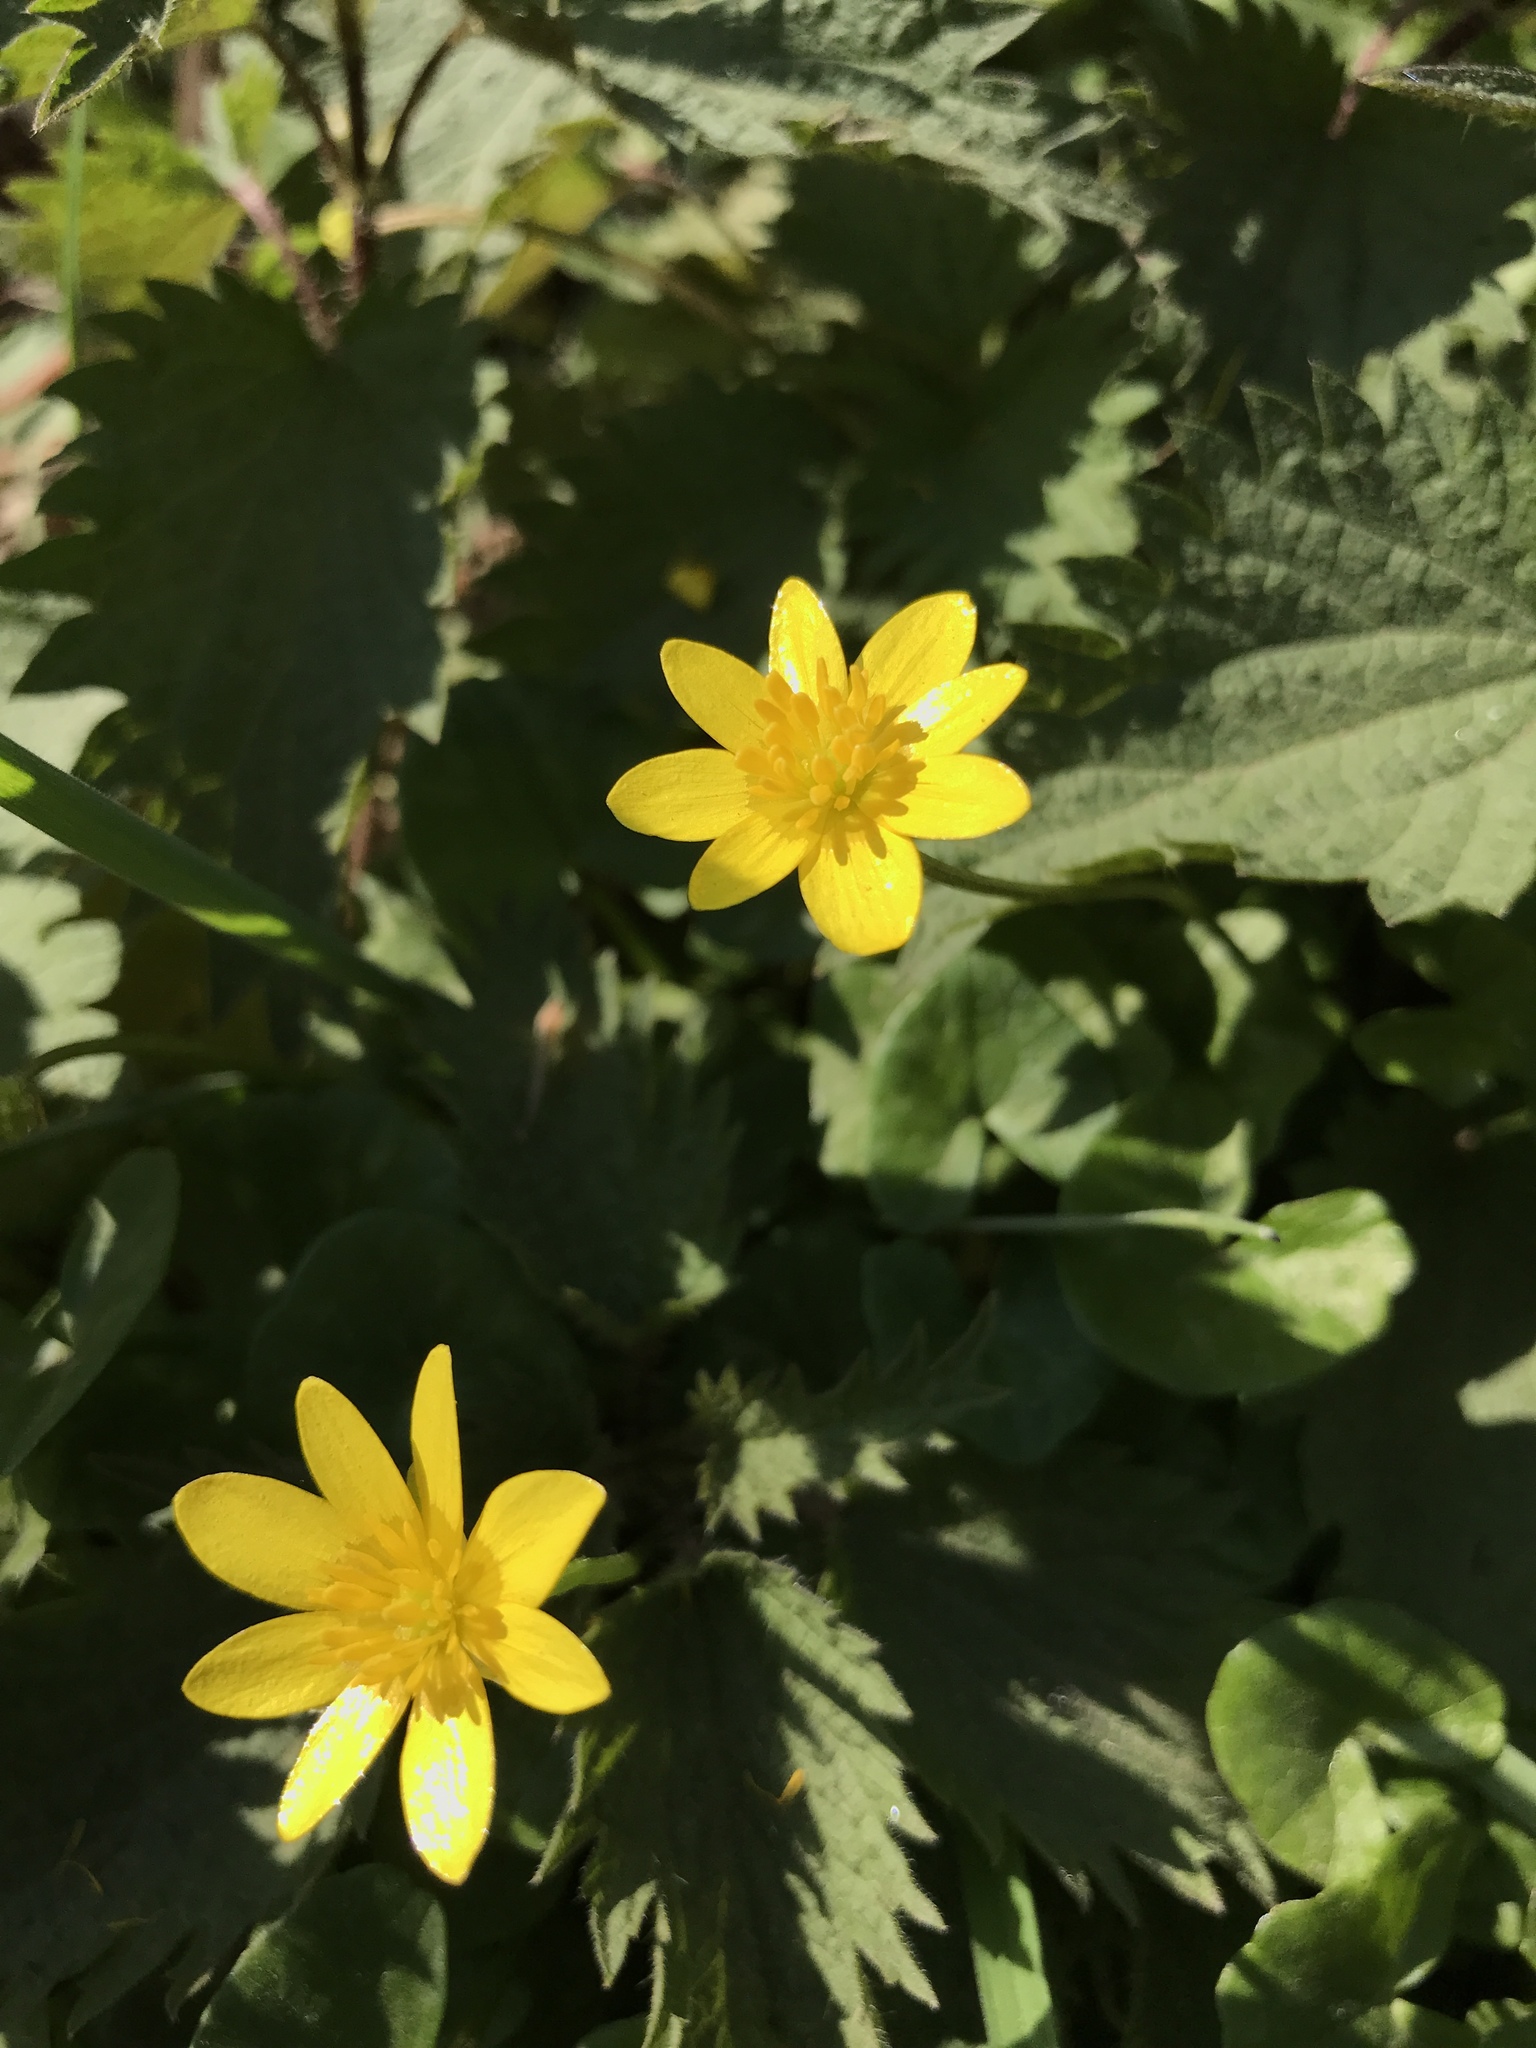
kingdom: Plantae
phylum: Tracheophyta
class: Magnoliopsida
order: Ranunculales
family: Ranunculaceae
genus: Ficaria
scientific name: Ficaria verna
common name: Lesser celandine
